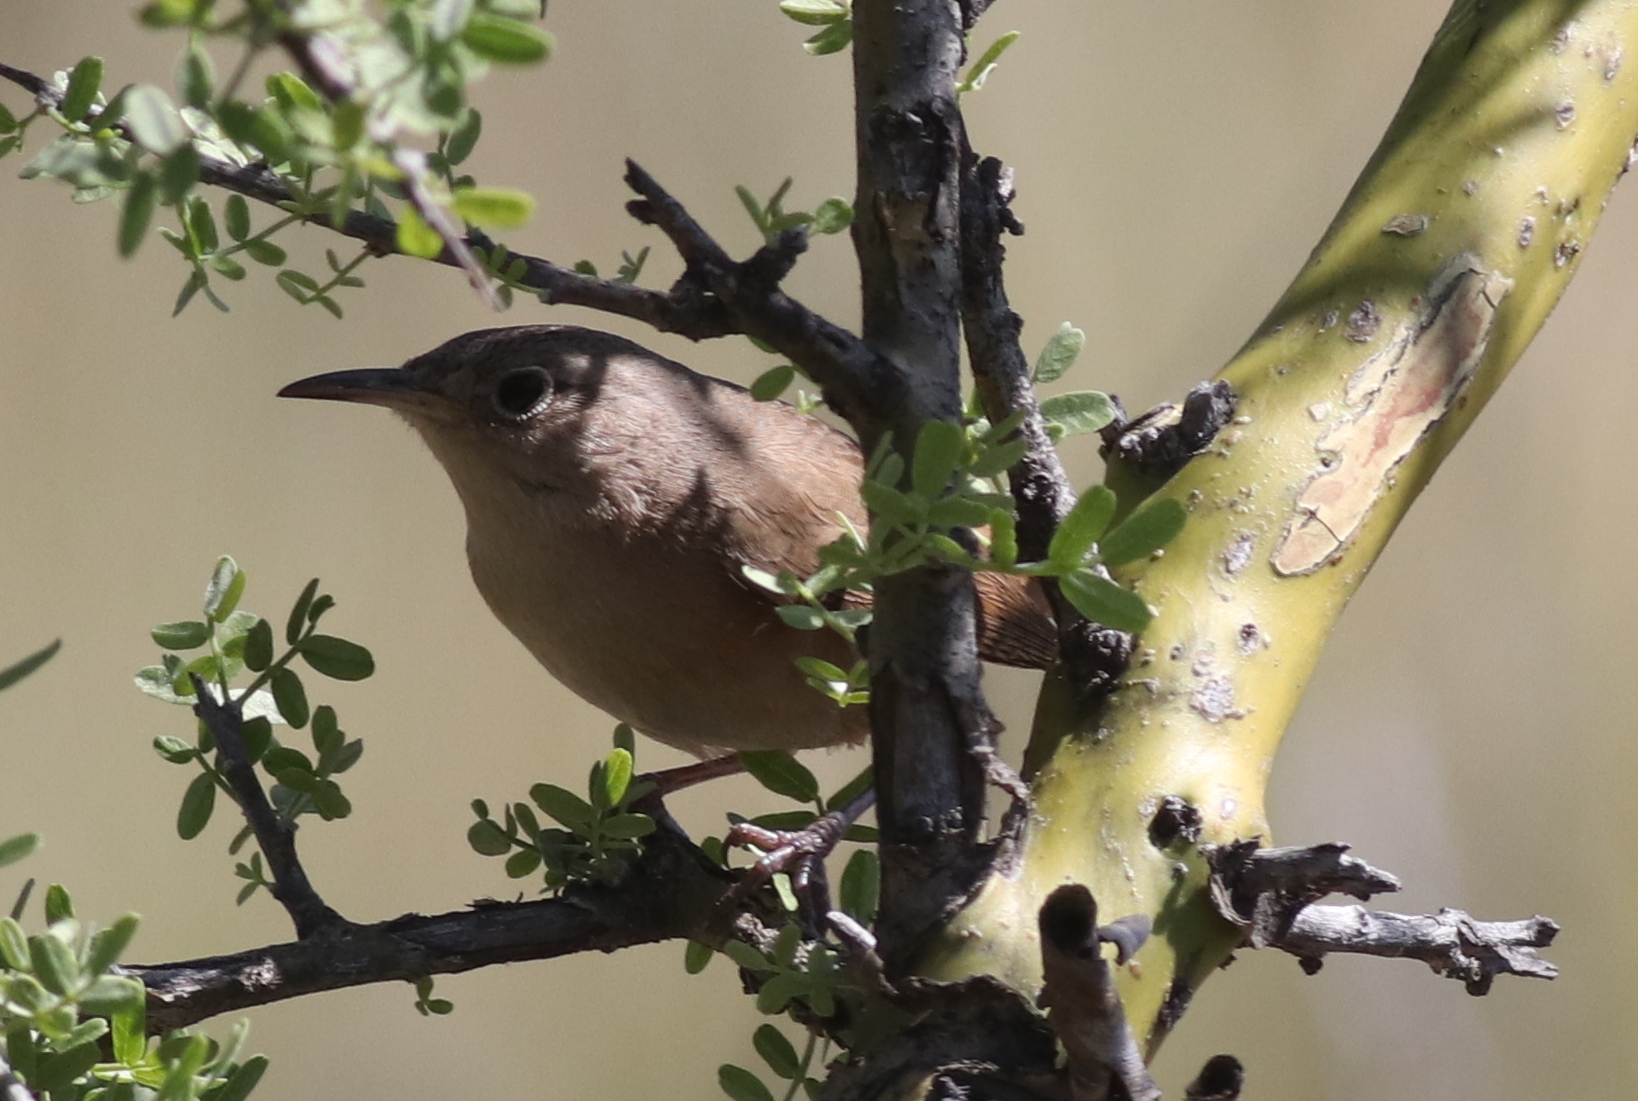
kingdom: Animalia
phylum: Chordata
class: Aves
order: Passeriformes
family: Troglodytidae
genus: Troglodytes
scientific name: Troglodytes aedon
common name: House wren
